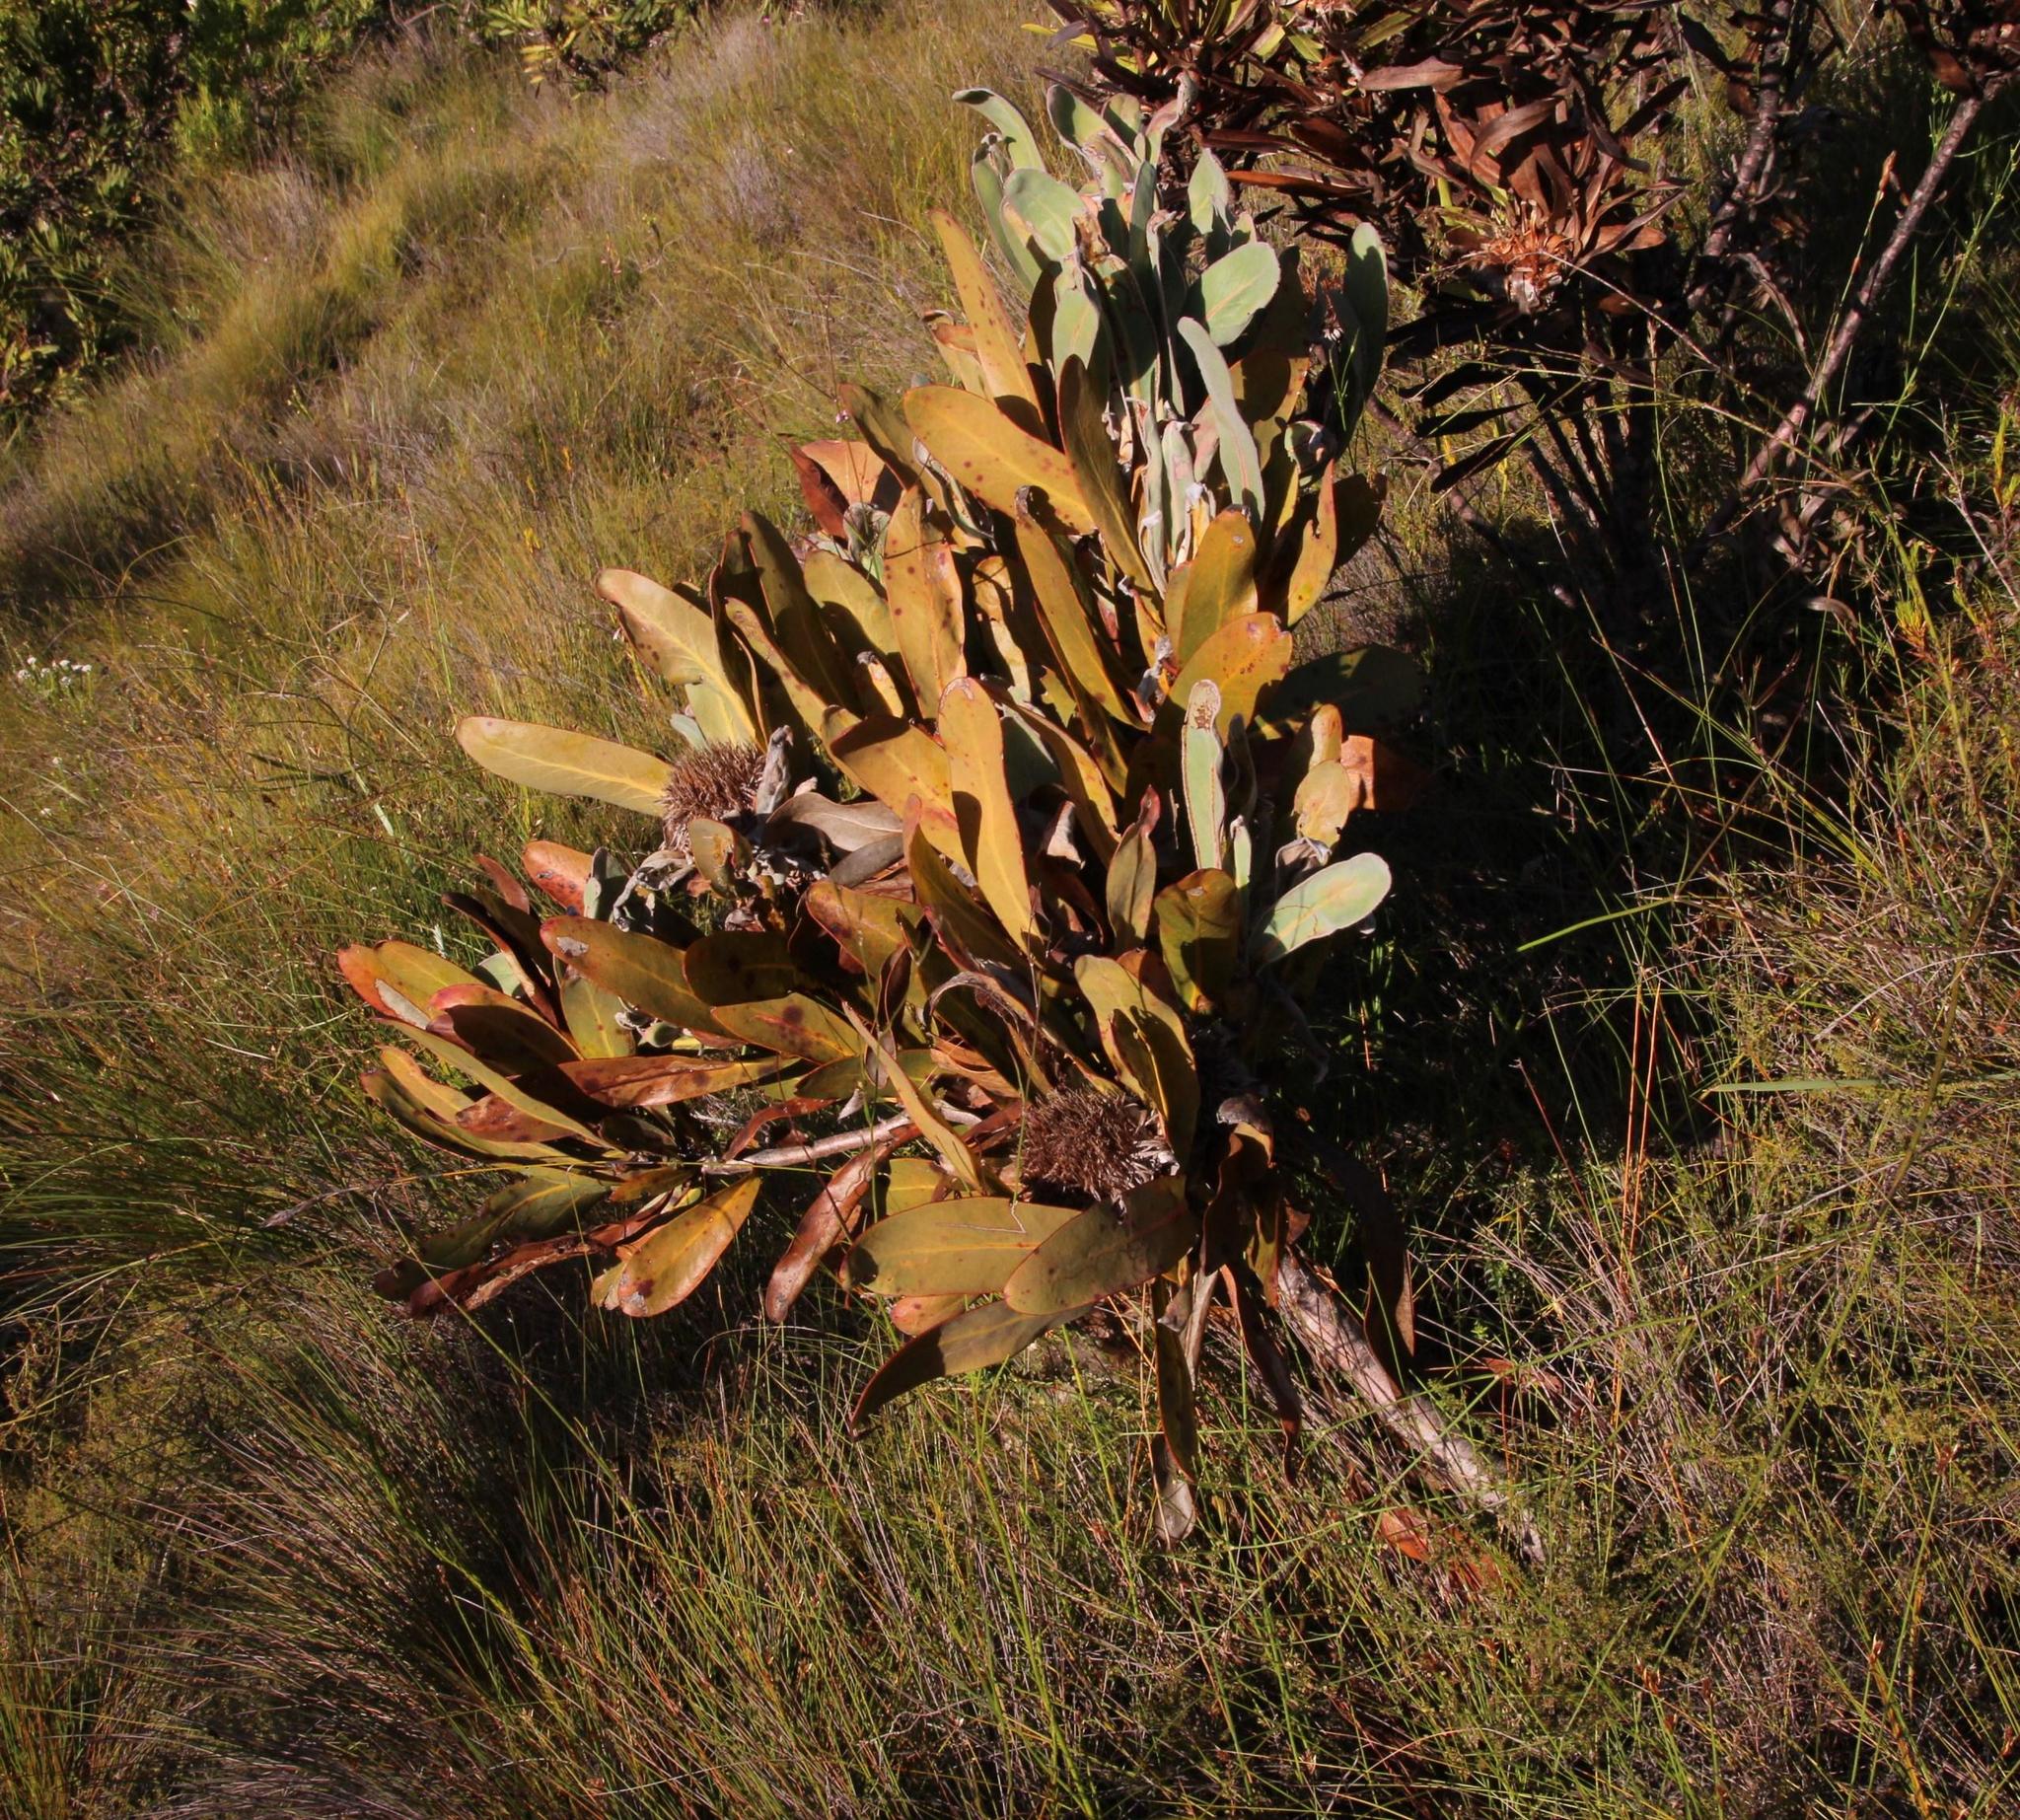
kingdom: Plantae
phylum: Tracheophyta
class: Magnoliopsida
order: Proteales
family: Proteaceae
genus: Protea
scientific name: Protea lorifolia
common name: Strap-leaved protea
